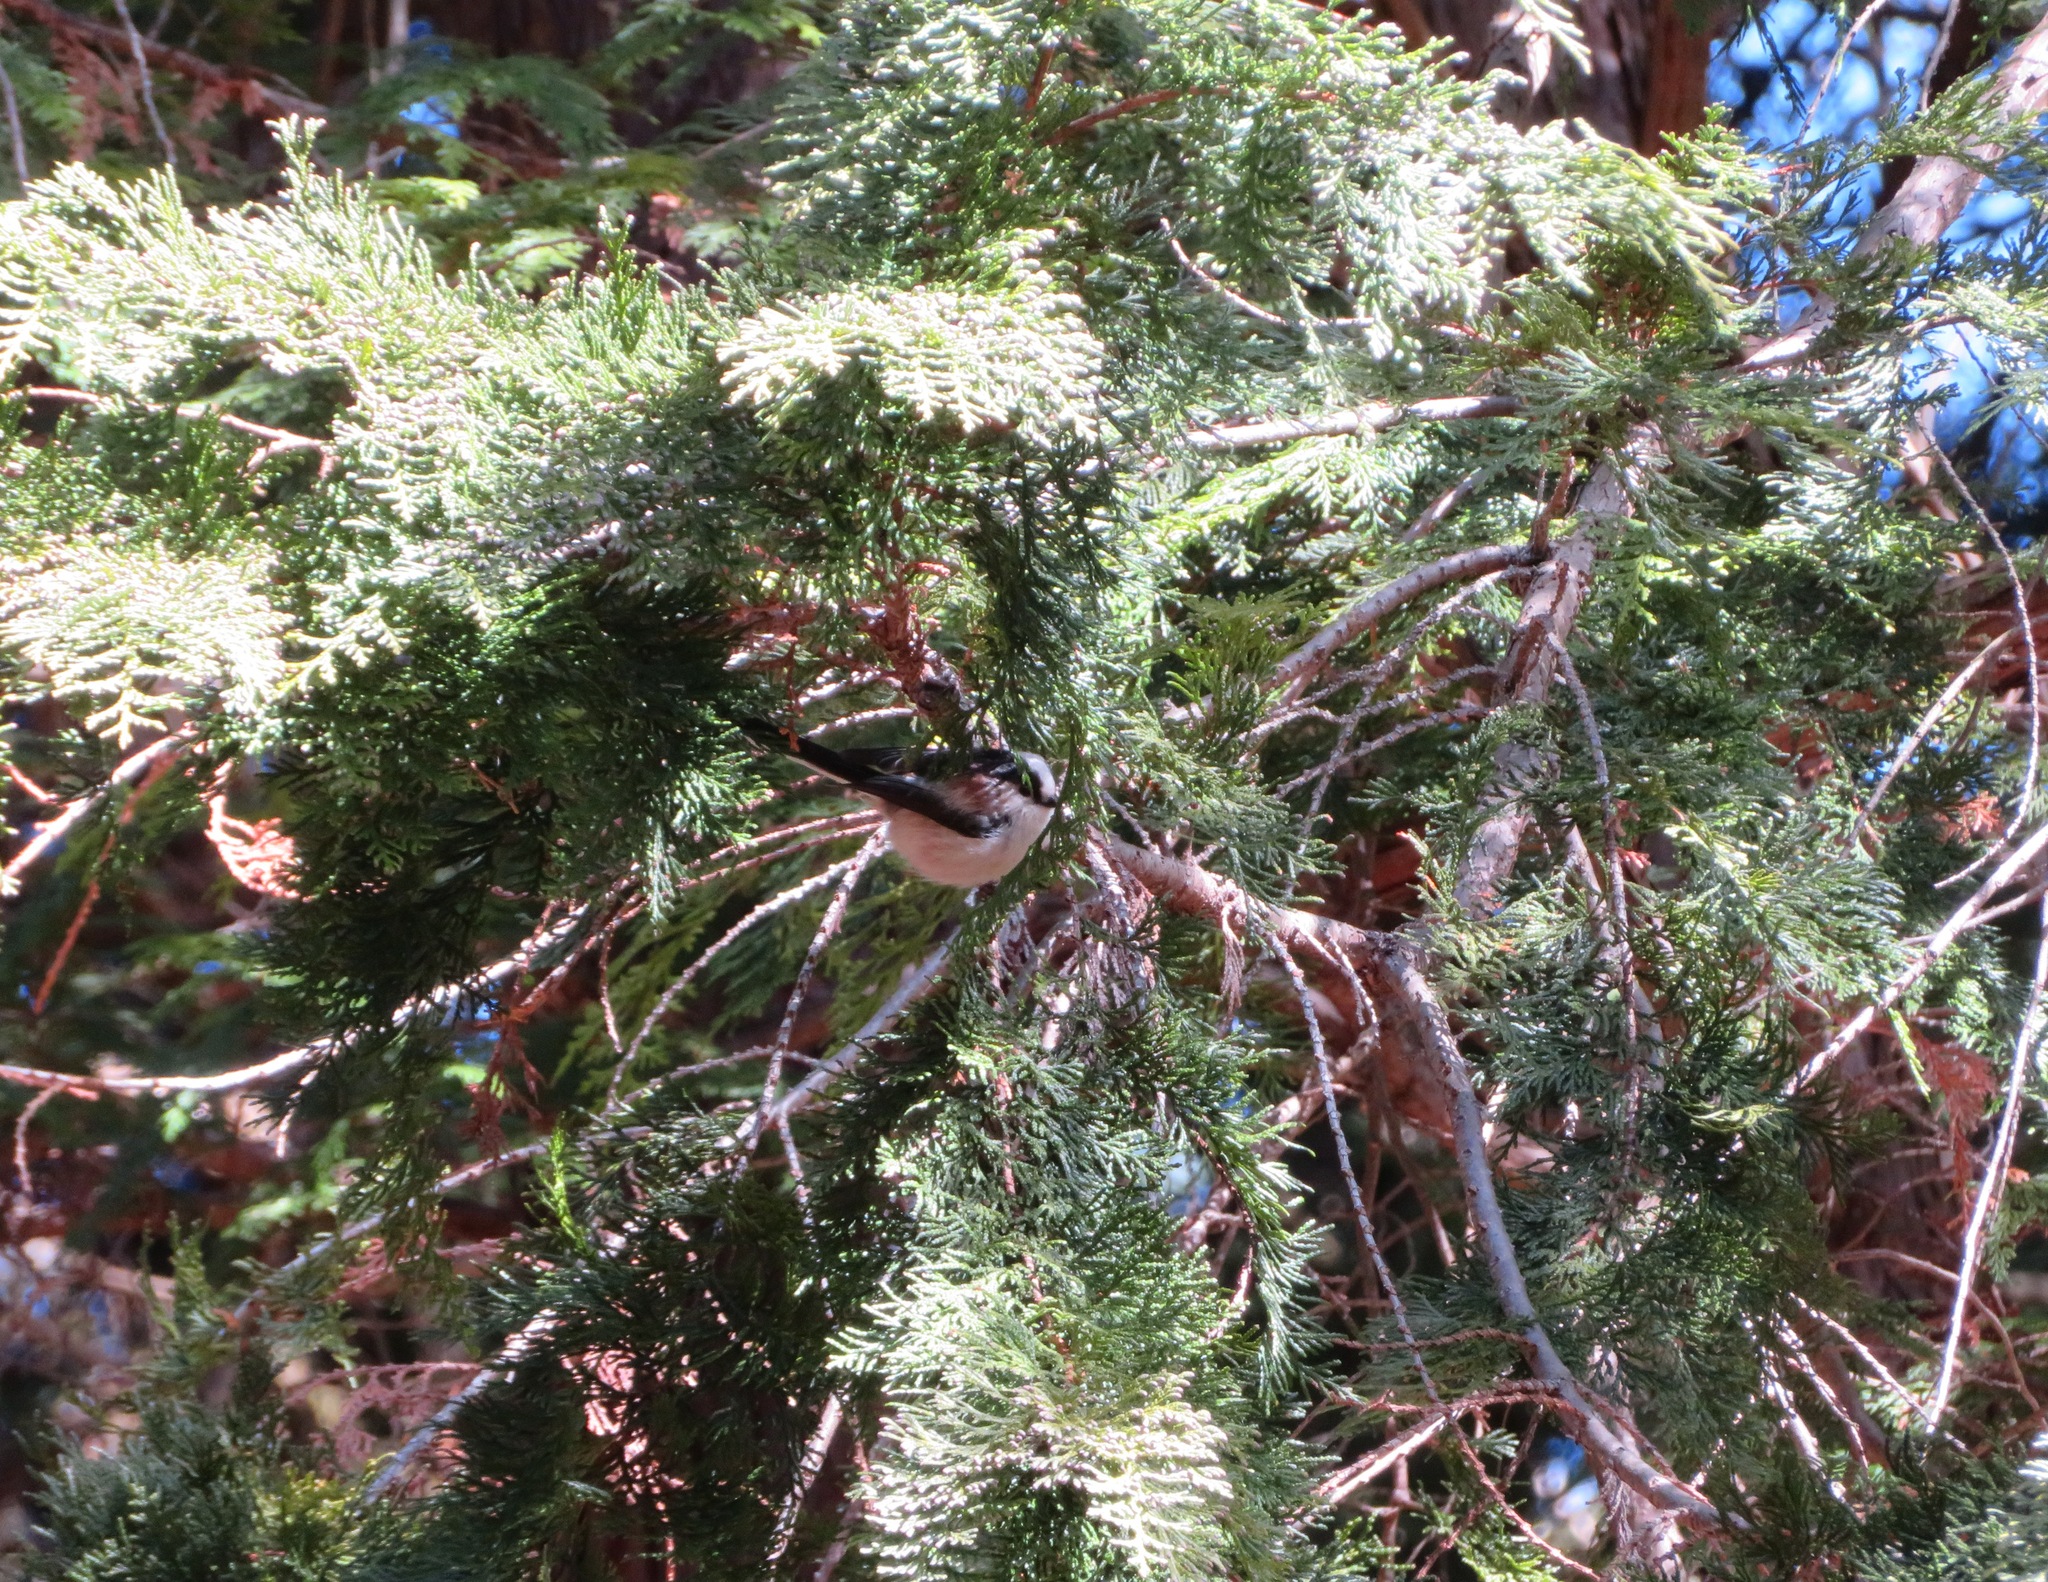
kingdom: Animalia
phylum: Chordata
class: Aves
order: Passeriformes
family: Aegithalidae
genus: Aegithalos
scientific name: Aegithalos caudatus
